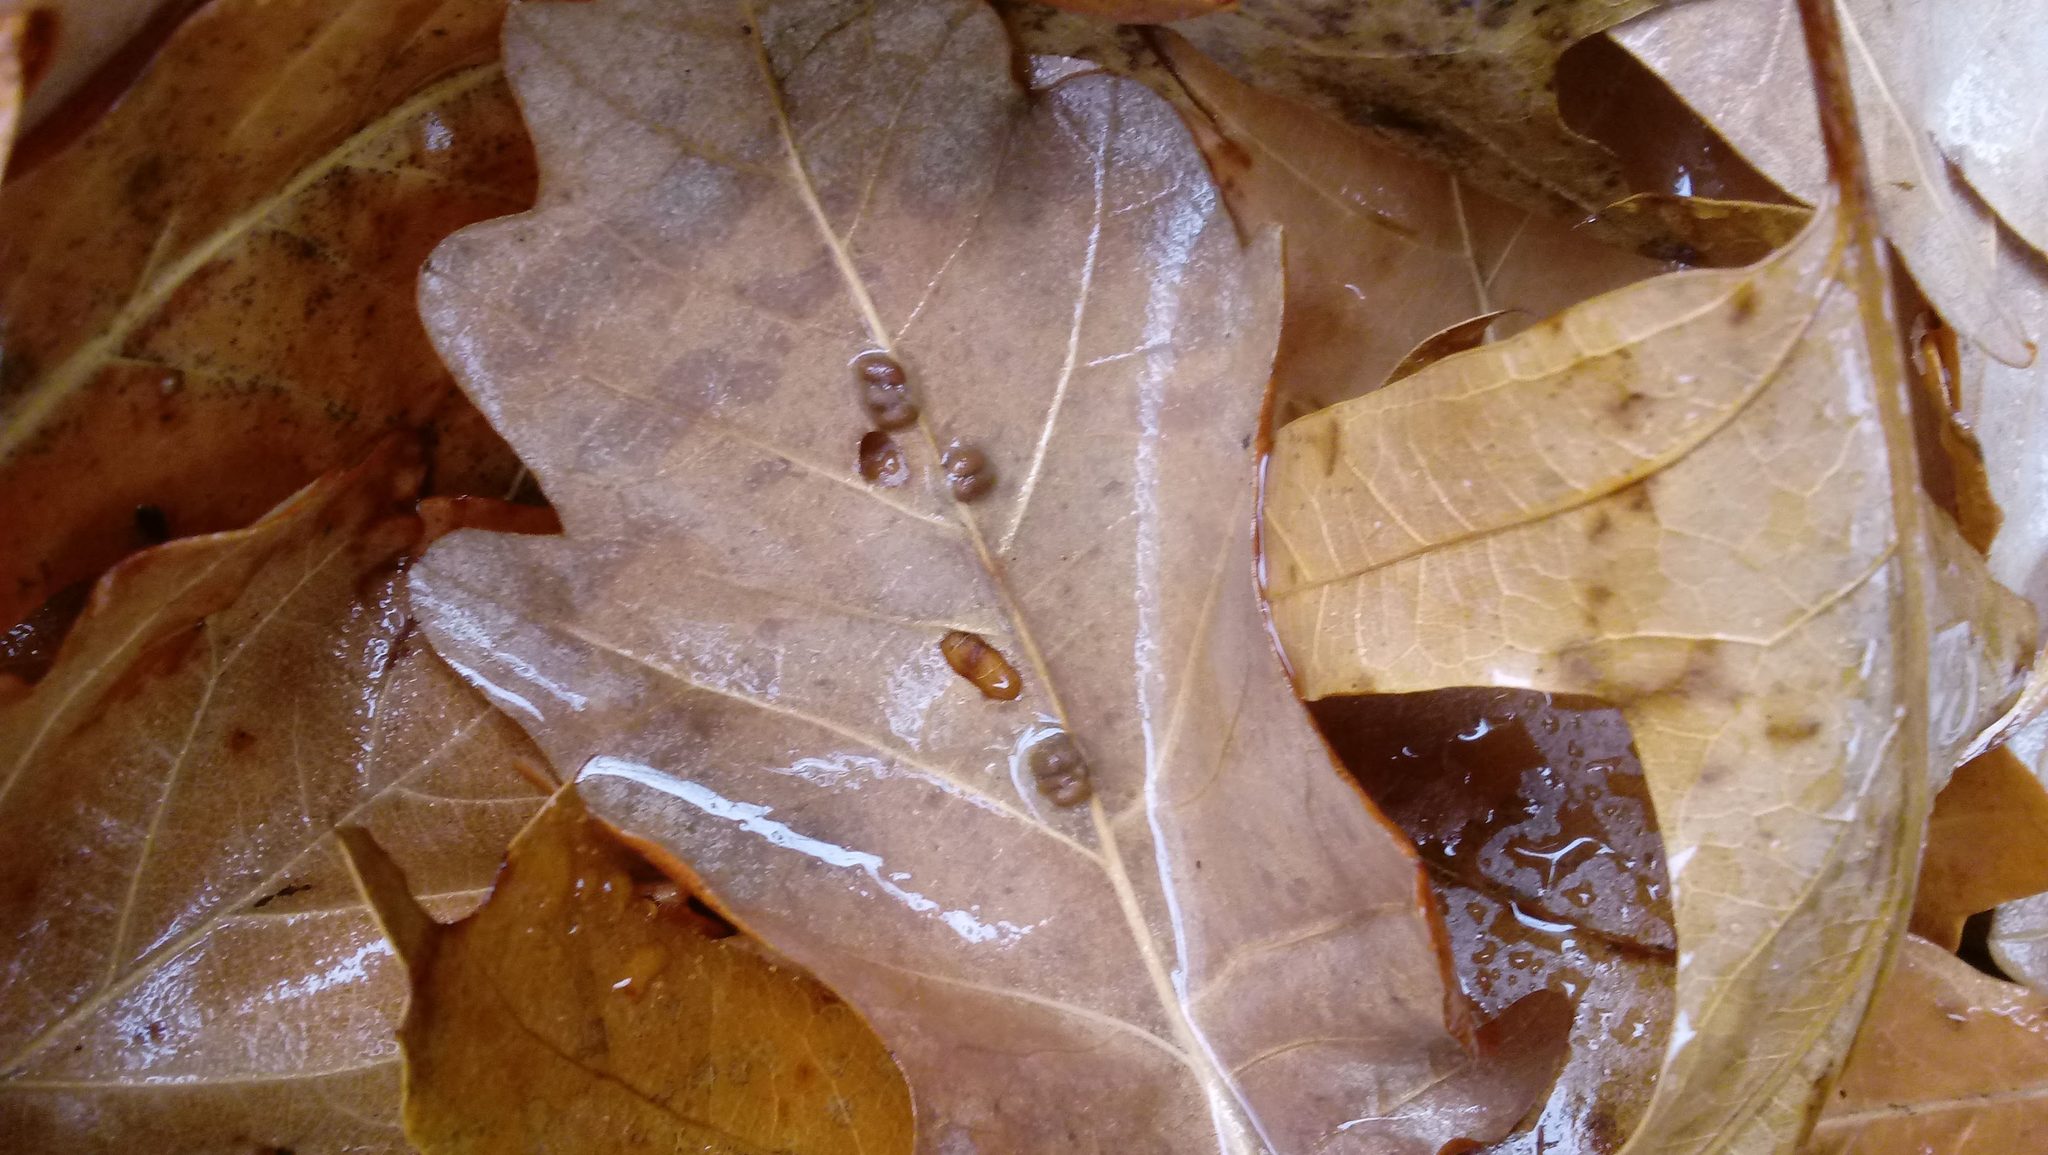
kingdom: Animalia
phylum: Arthropoda
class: Insecta
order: Hymenoptera
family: Cynipidae
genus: Andricus
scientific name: Andricus Druon ignotum
